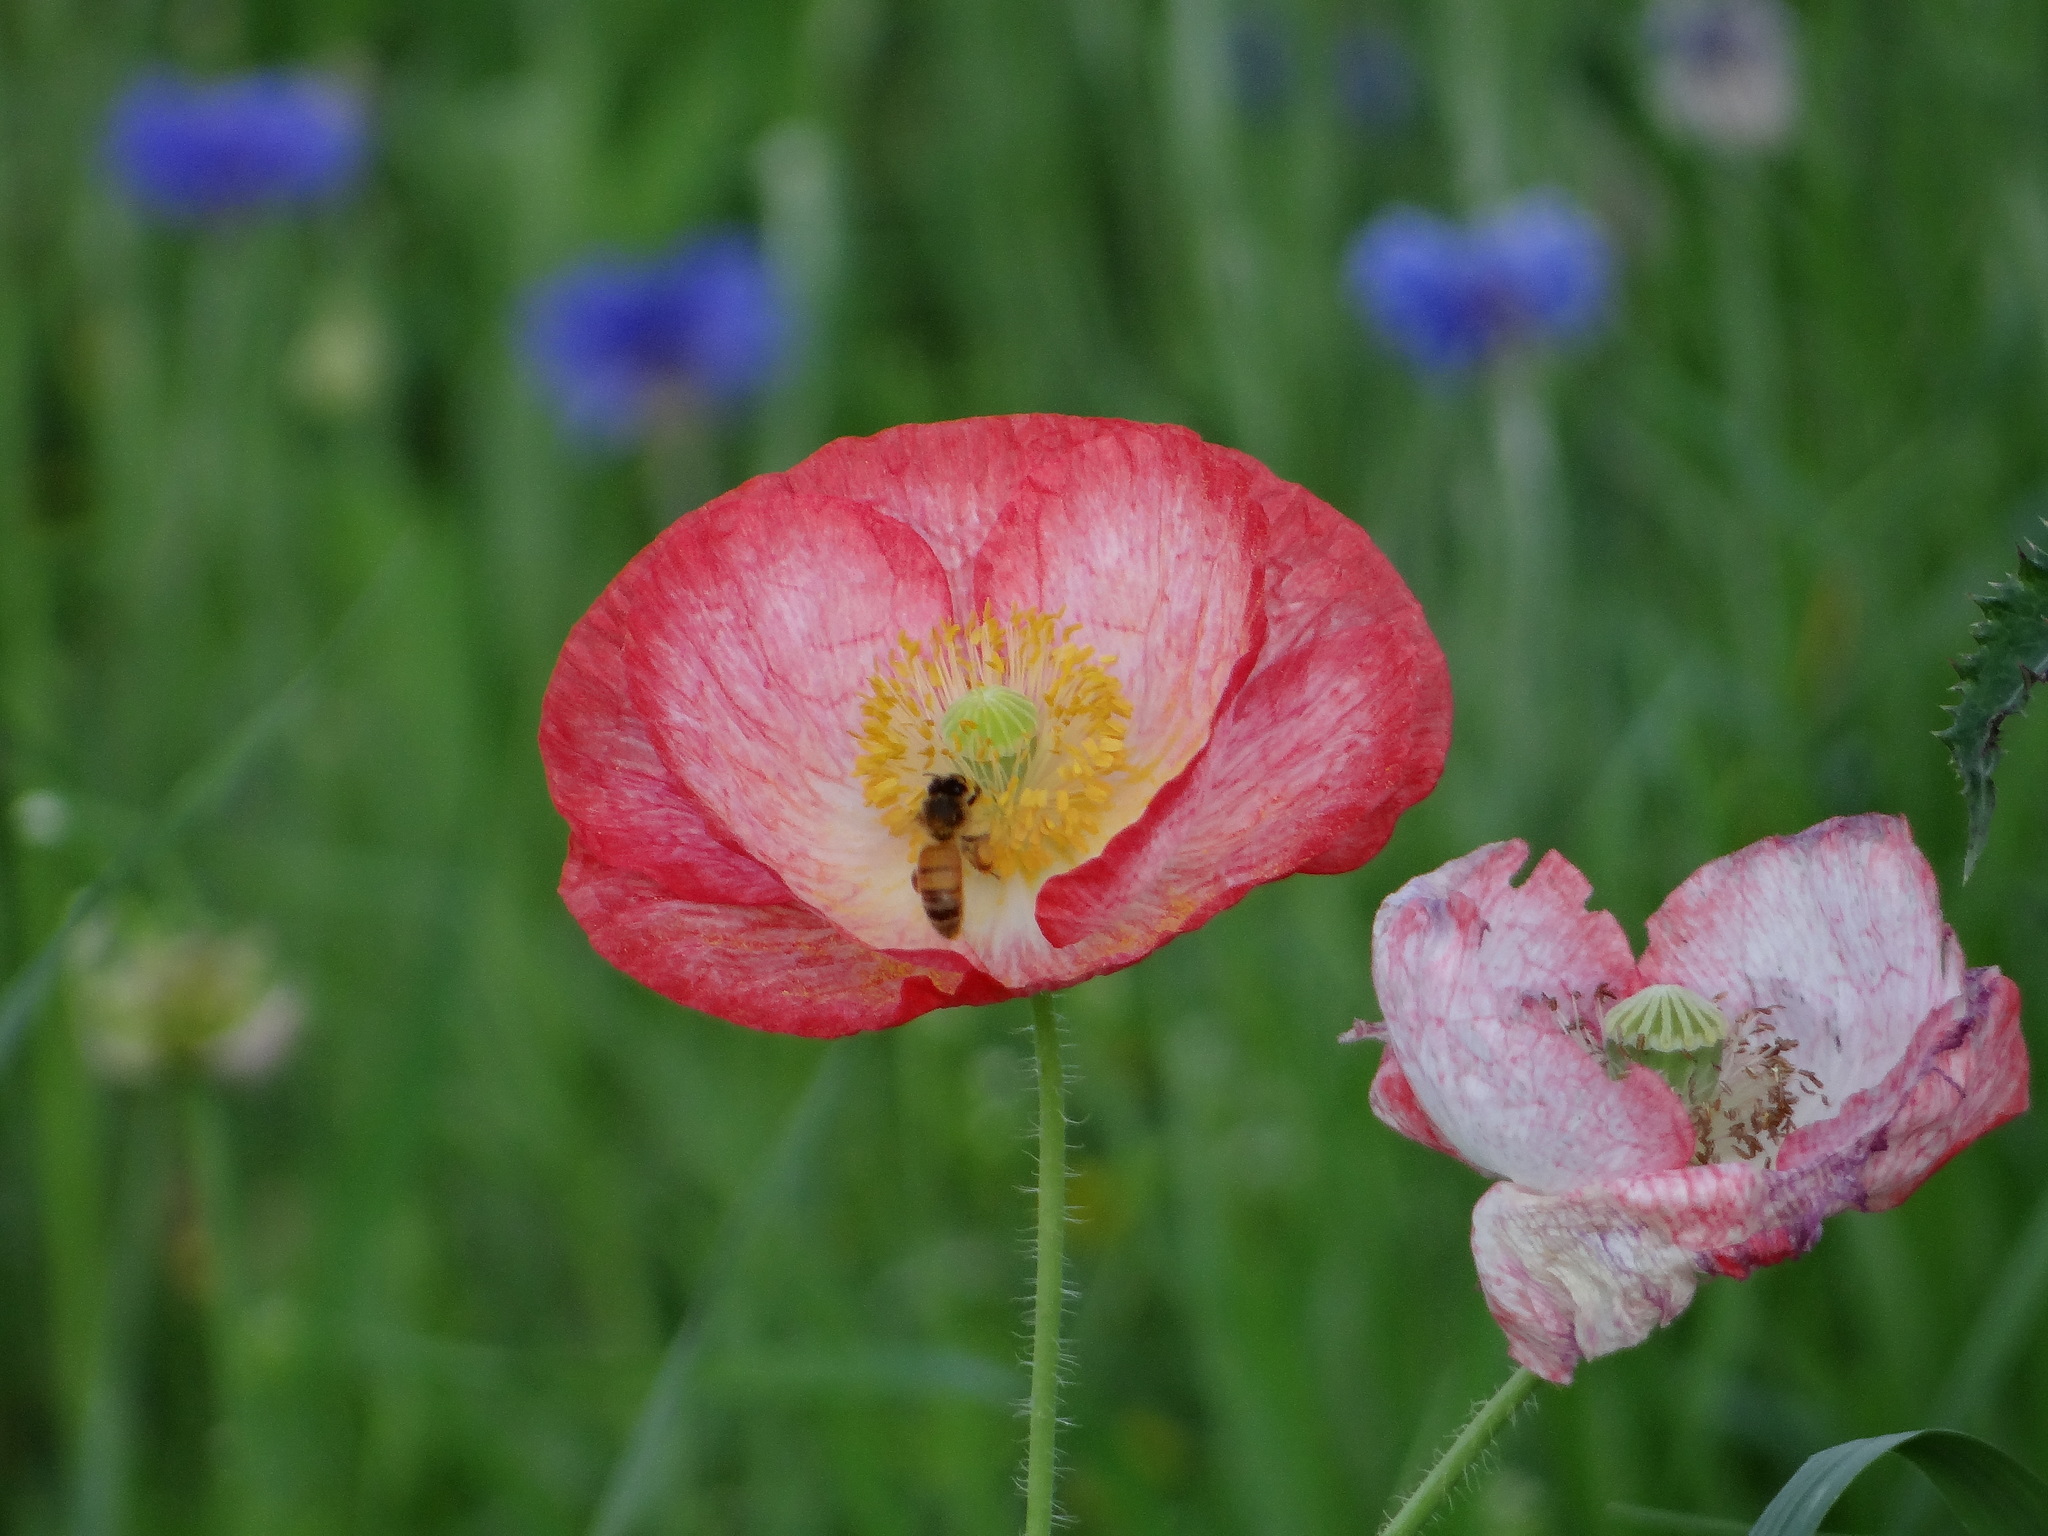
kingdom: Animalia
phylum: Arthropoda
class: Insecta
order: Hymenoptera
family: Apidae
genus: Apis
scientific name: Apis mellifera
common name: Honey bee
